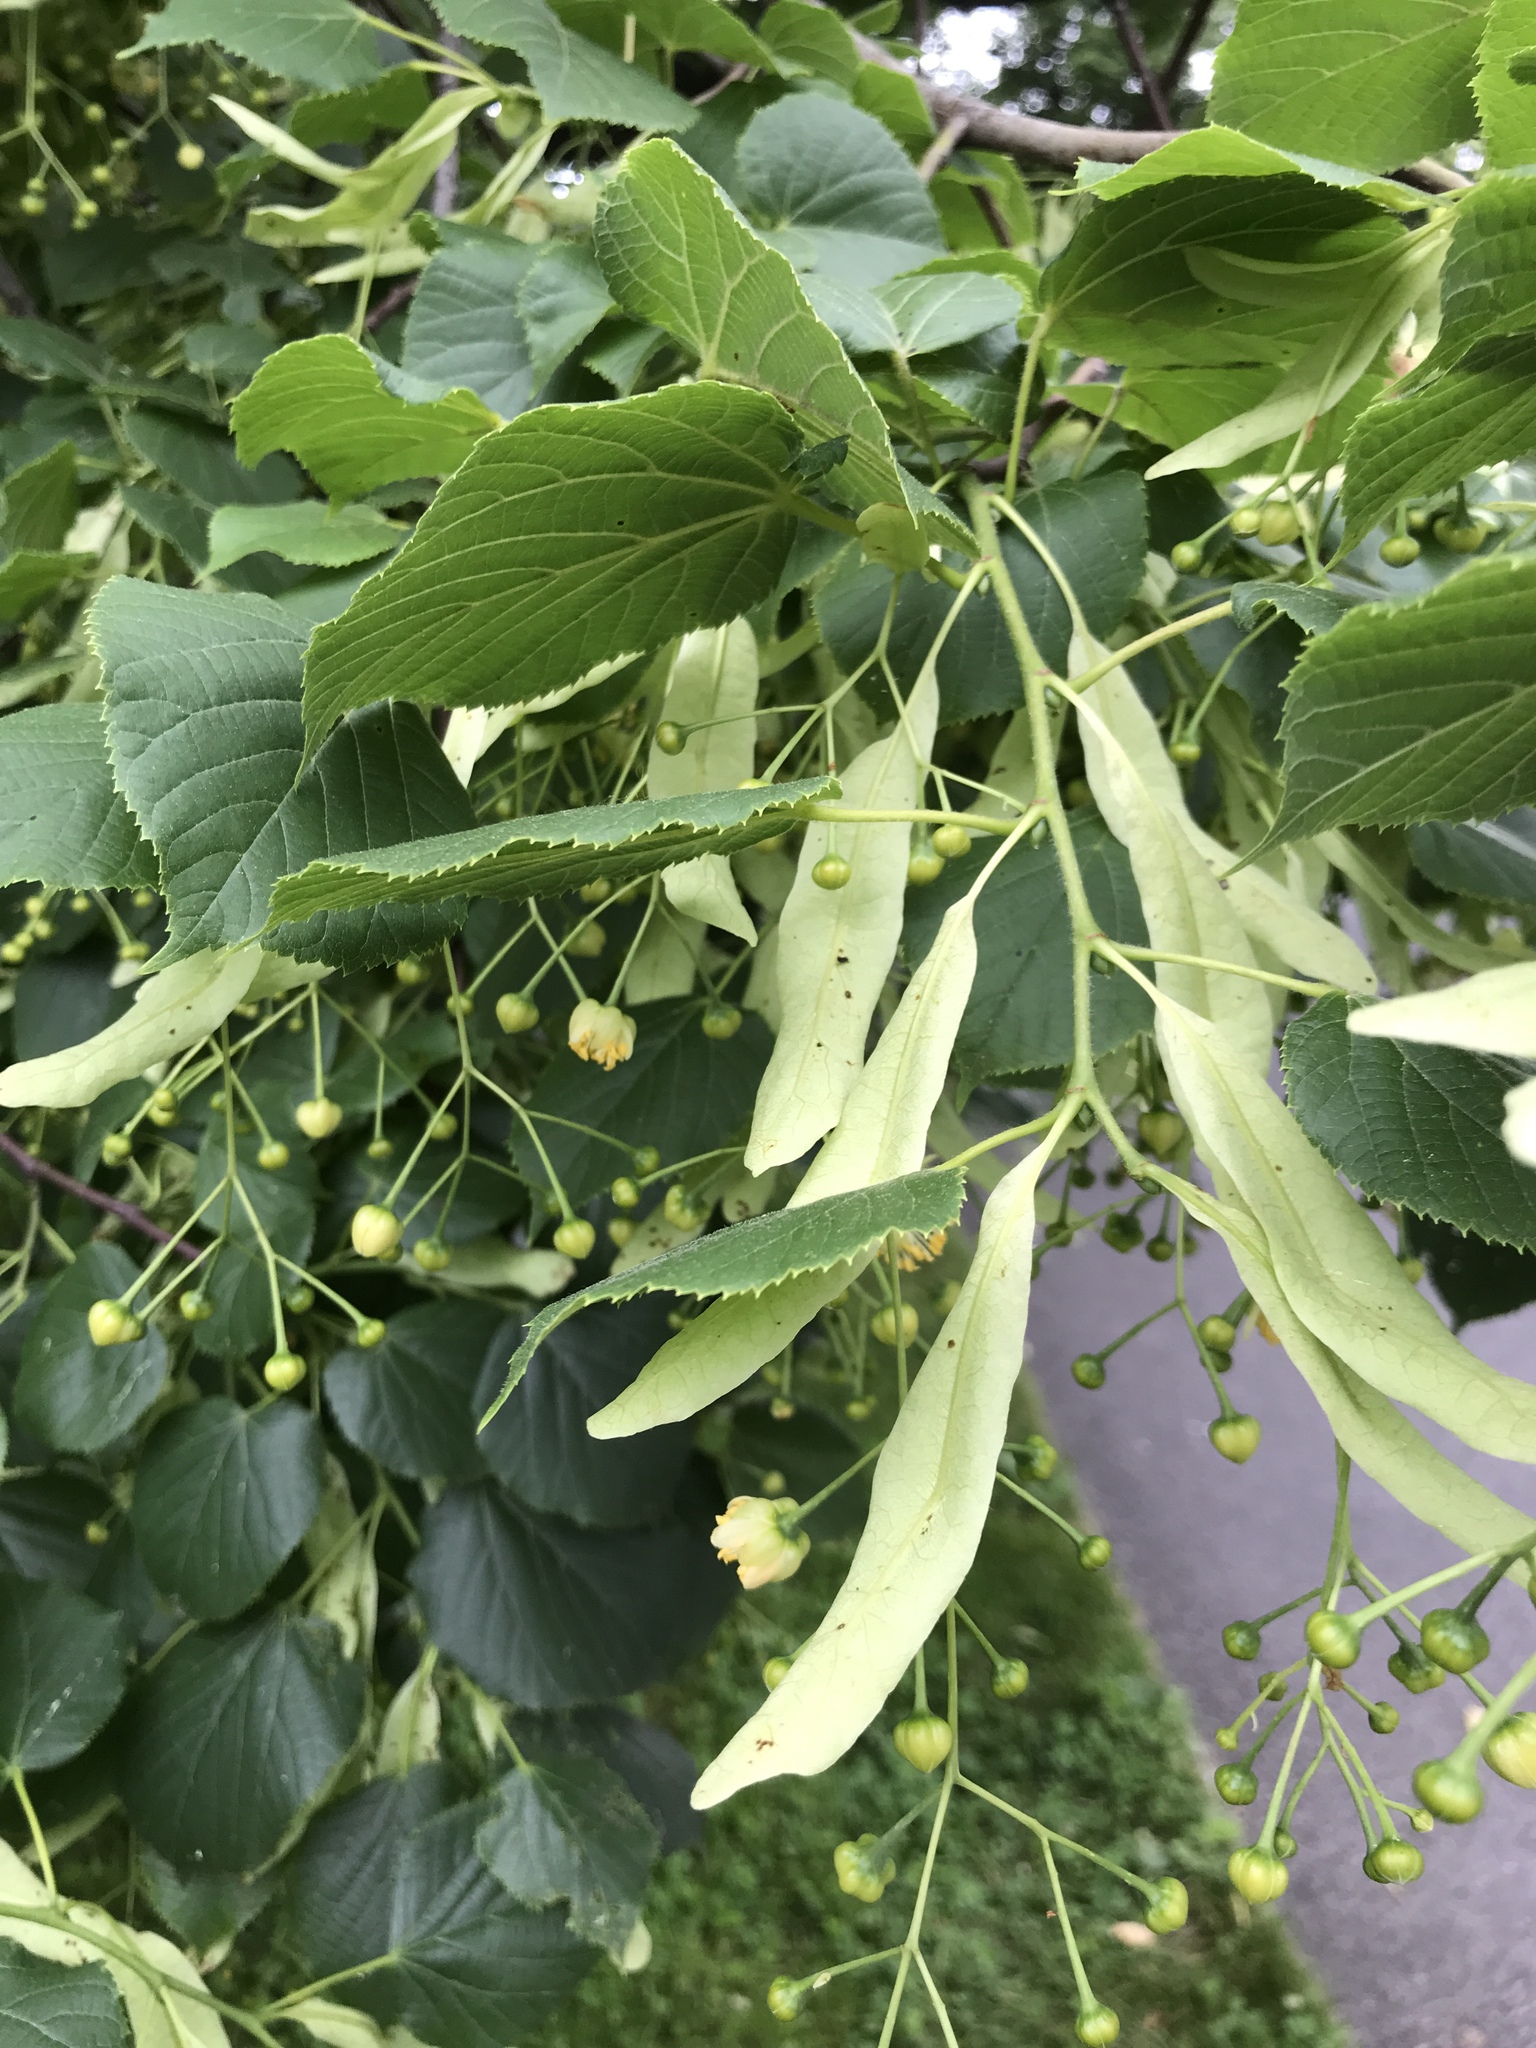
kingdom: Plantae
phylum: Tracheophyta
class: Magnoliopsida
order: Malvales
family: Malvaceae
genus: Tilia
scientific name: Tilia cordata
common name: Small-leaved lime
